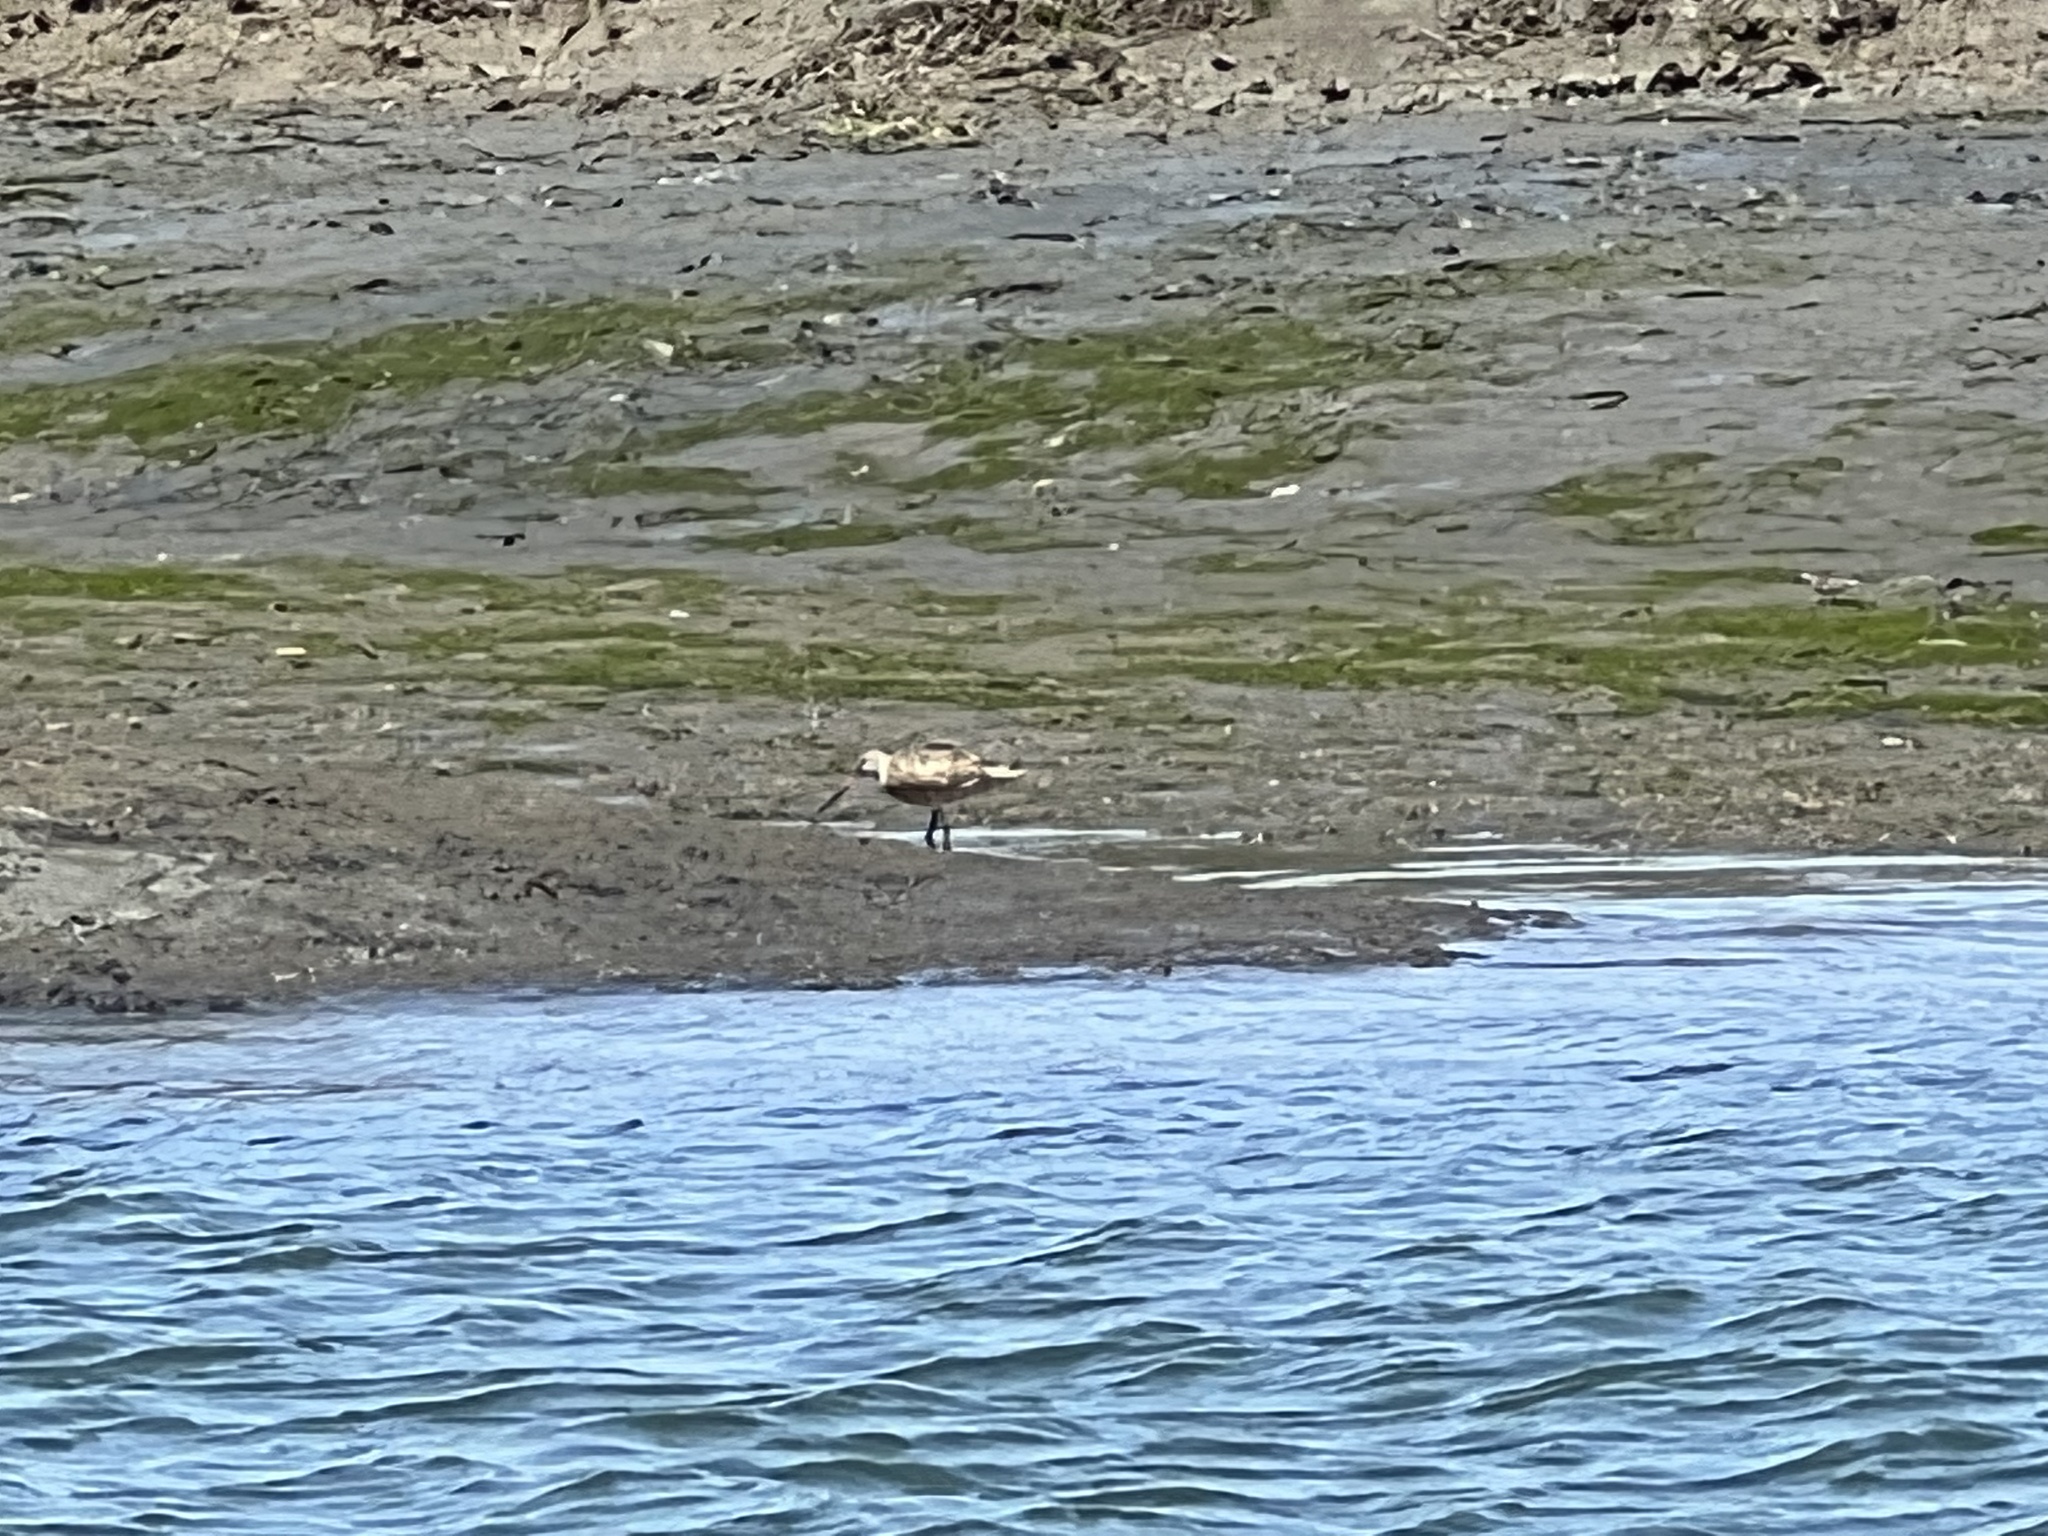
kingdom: Animalia
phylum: Chordata
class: Aves
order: Charadriiformes
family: Scolopacidae
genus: Limosa
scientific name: Limosa fedoa
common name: Marbled godwit
